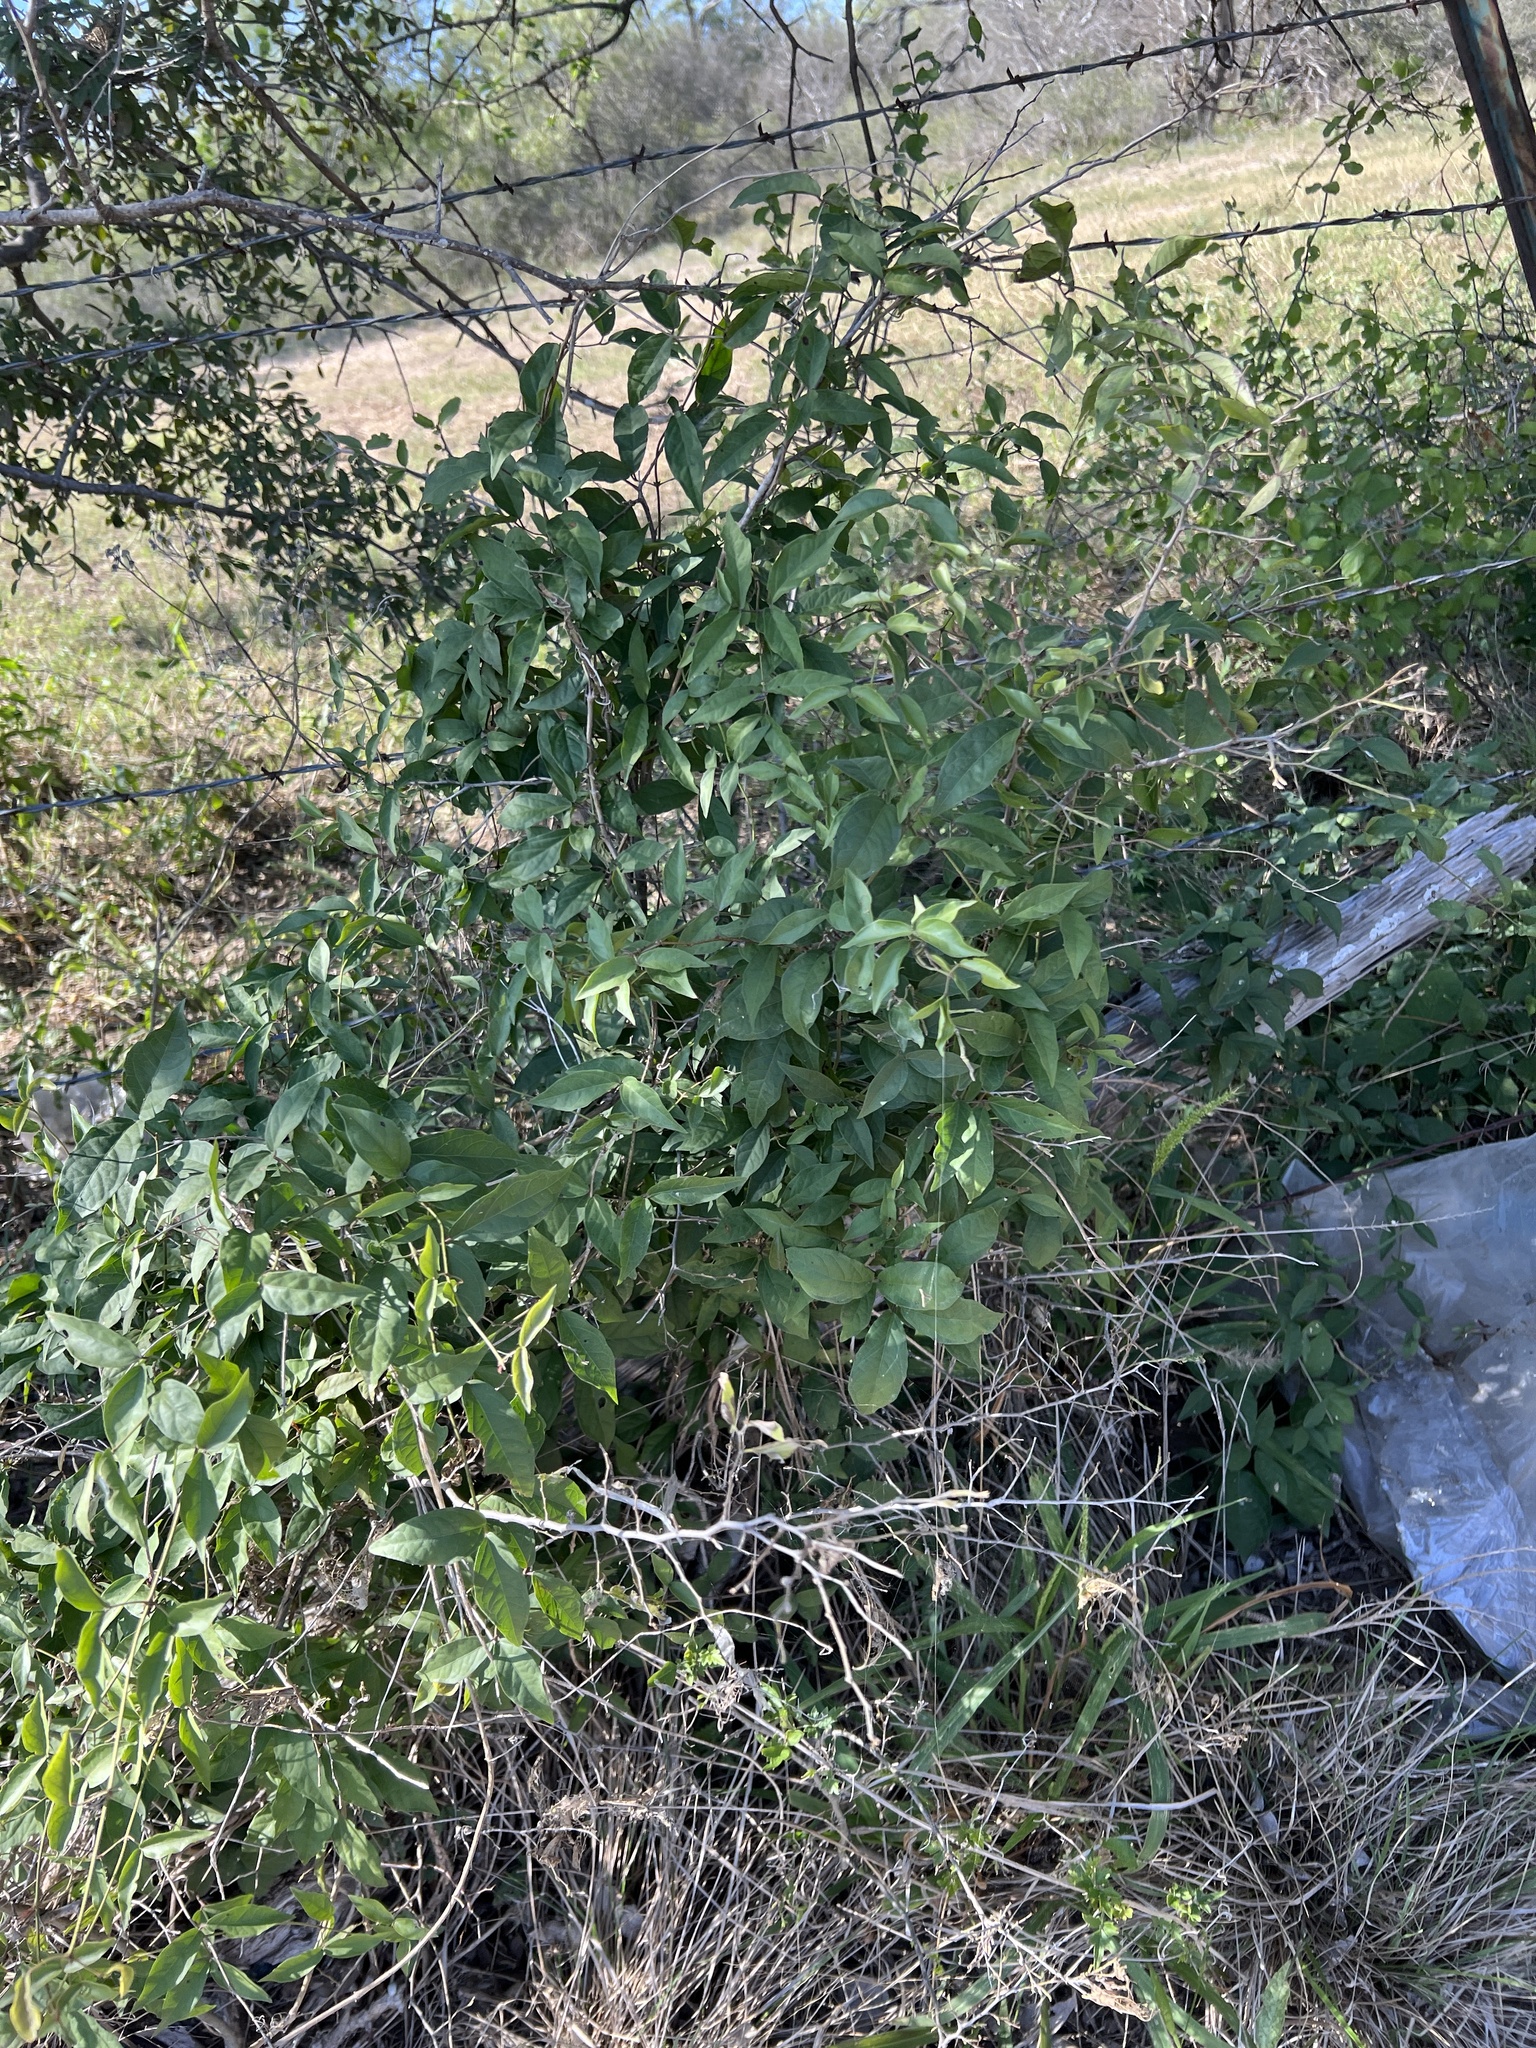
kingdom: Plantae
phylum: Tracheophyta
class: Magnoliopsida
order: Lamiales
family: Bignoniaceae
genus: Dolichandra
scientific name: Dolichandra unguis-cati
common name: Catclaw vine
